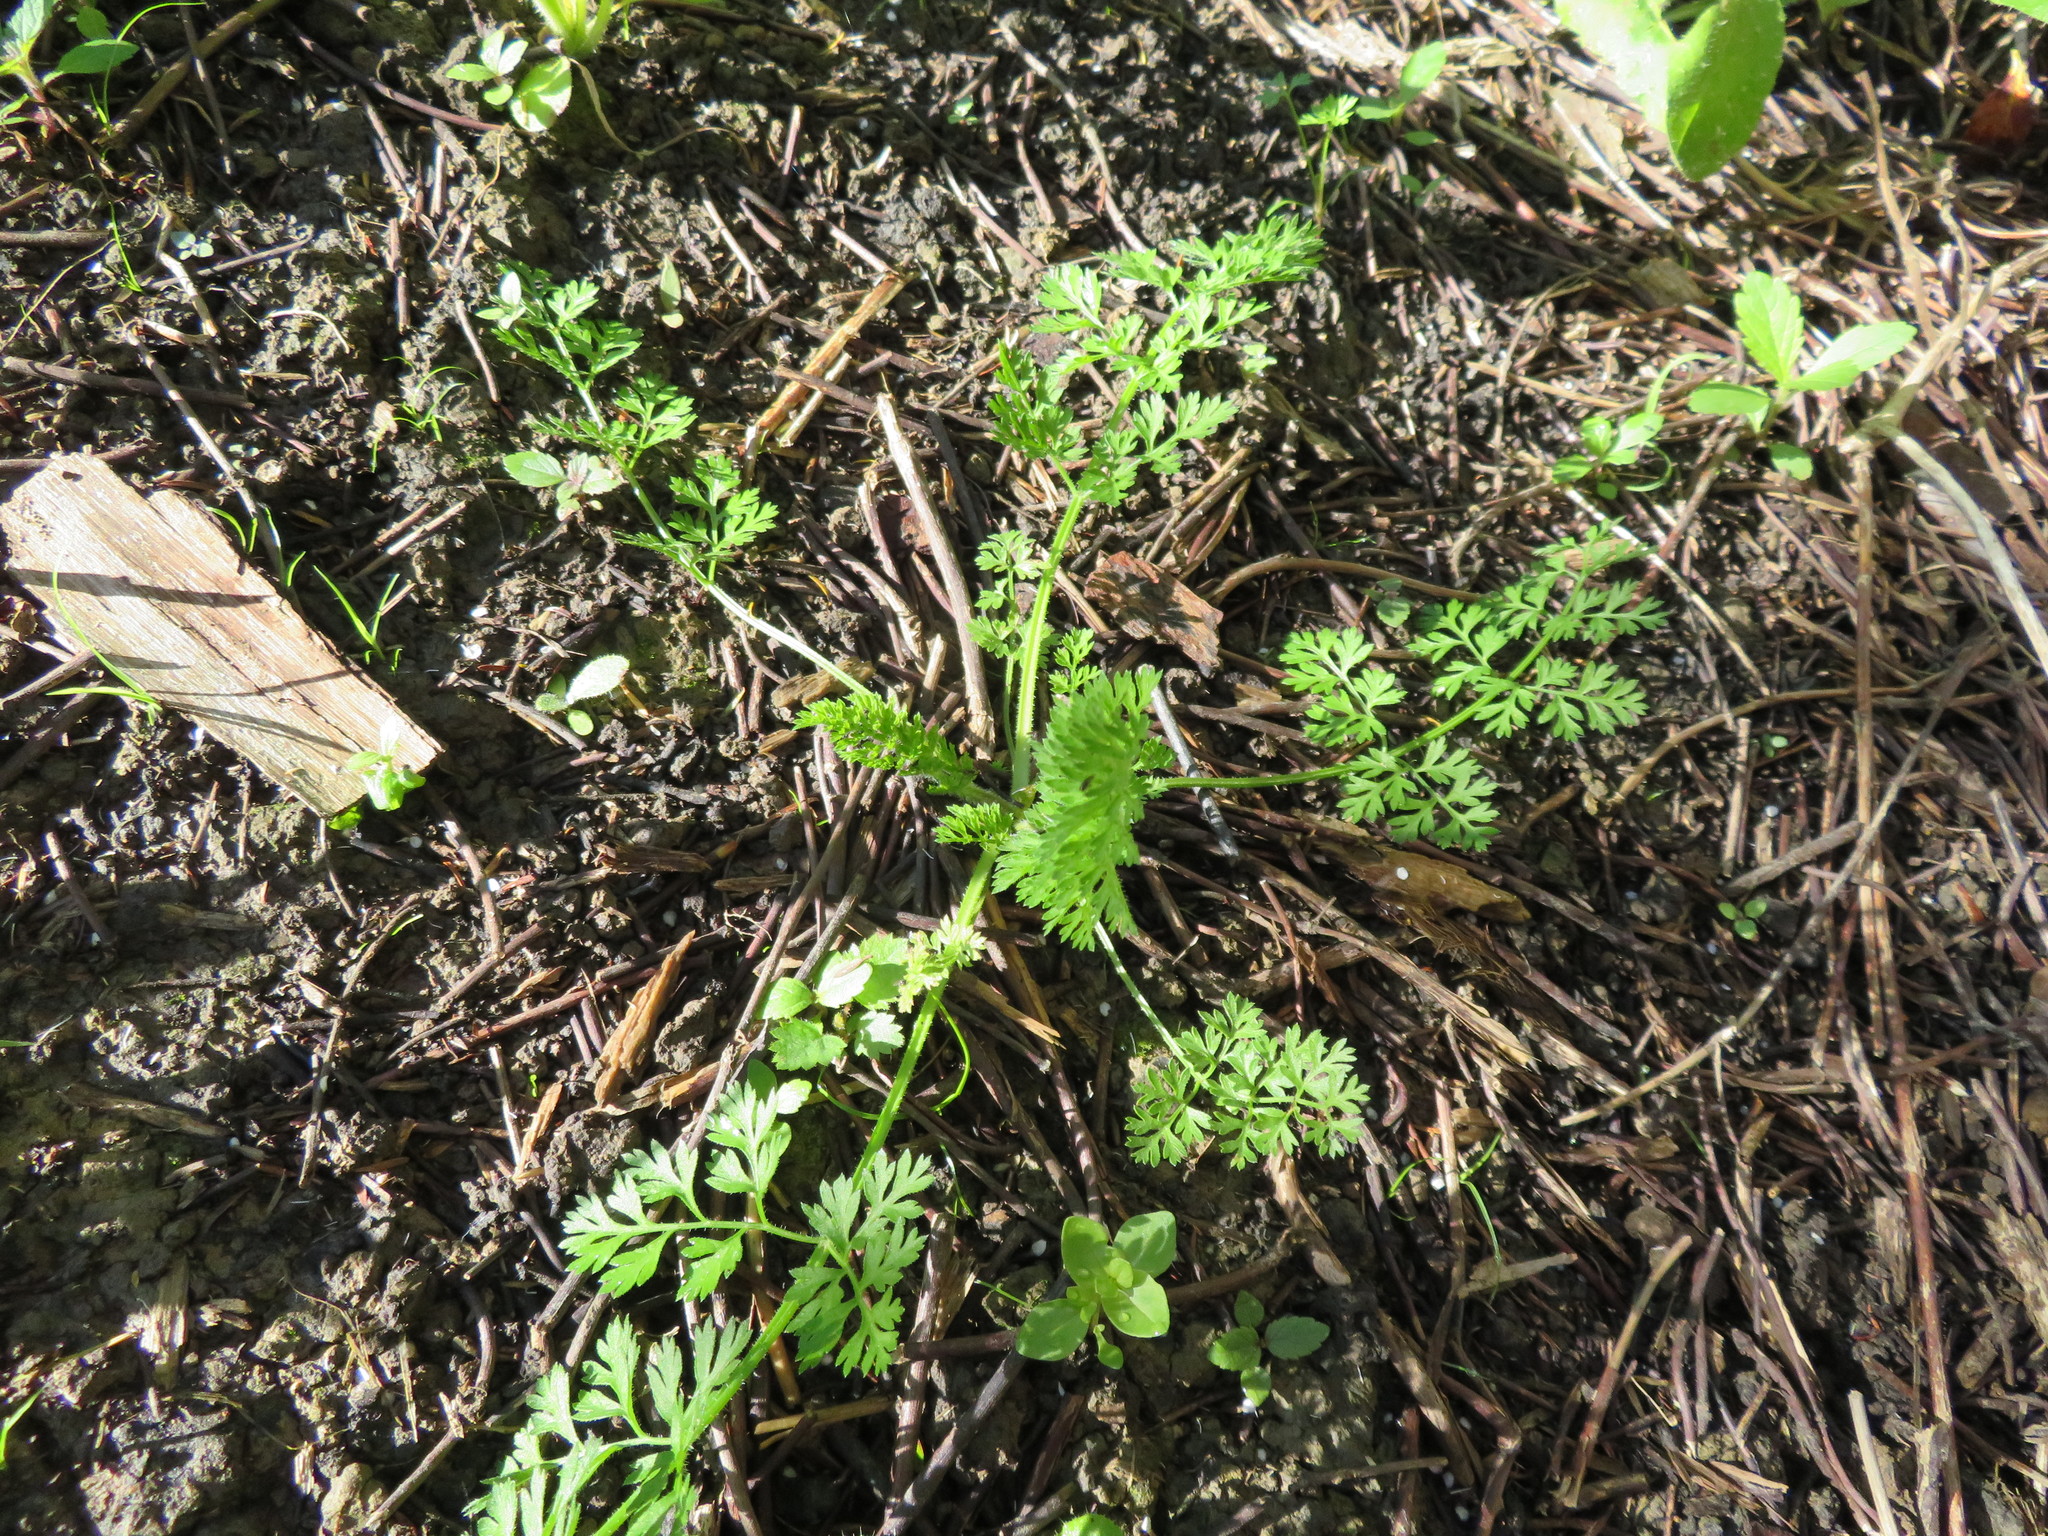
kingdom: Plantae
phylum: Tracheophyta
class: Magnoliopsida
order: Apiales
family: Apiaceae
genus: Daucus
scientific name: Daucus carota
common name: Wild carrot
